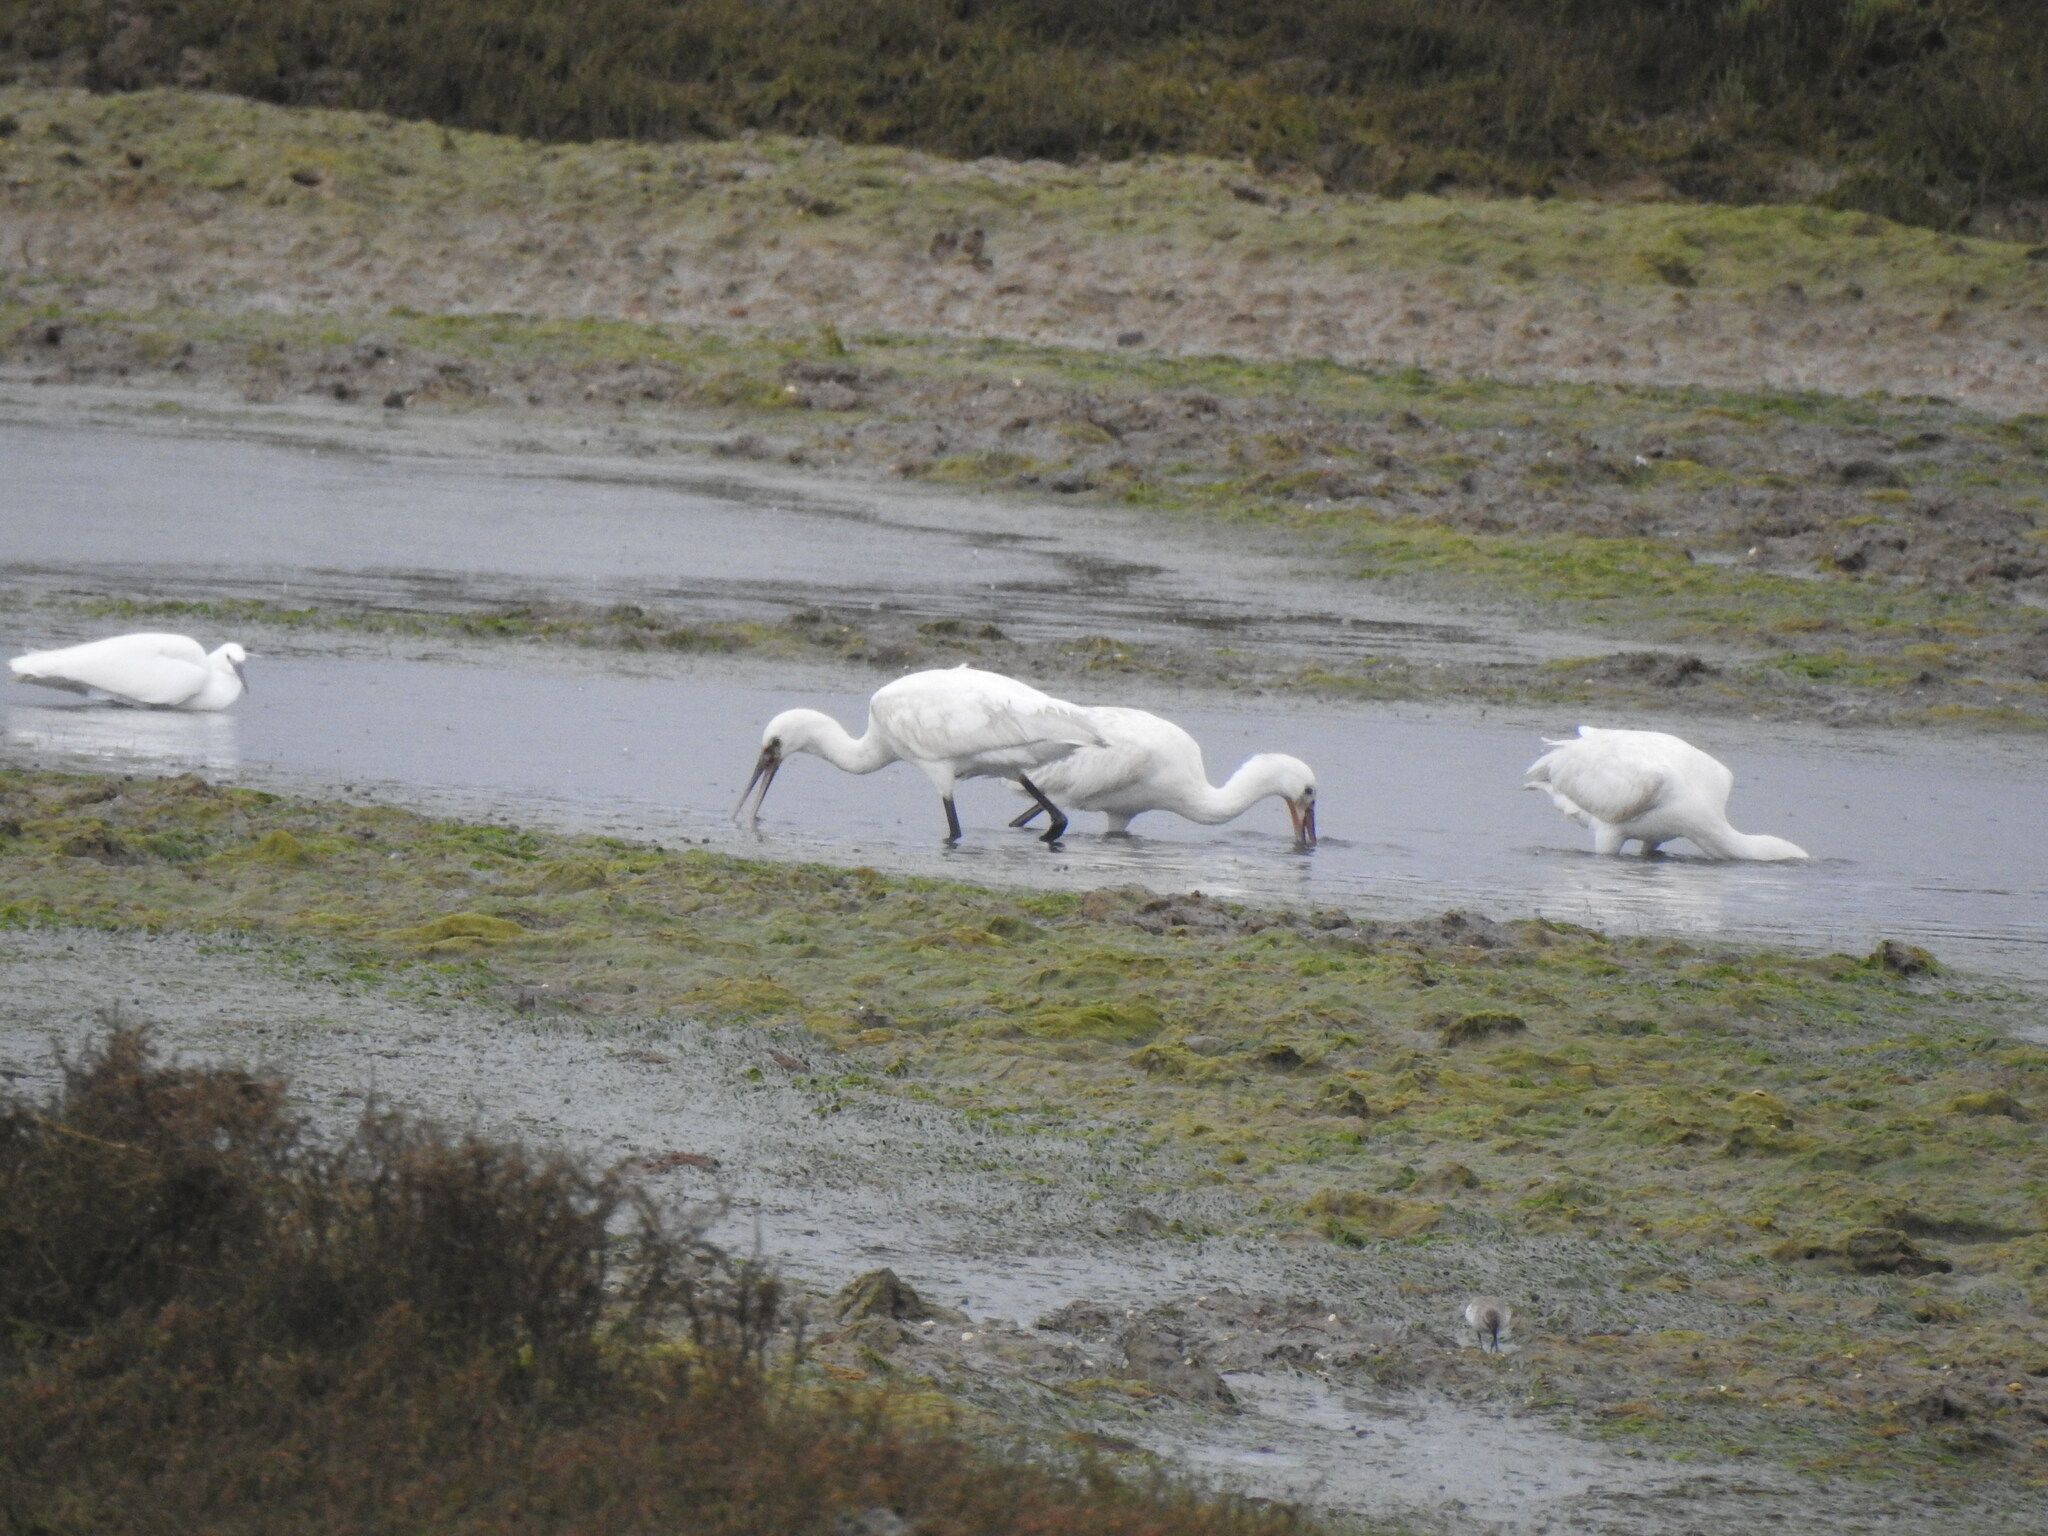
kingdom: Animalia
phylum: Chordata
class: Aves
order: Pelecaniformes
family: Threskiornithidae
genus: Platalea
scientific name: Platalea leucorodia
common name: Eurasian spoonbill
